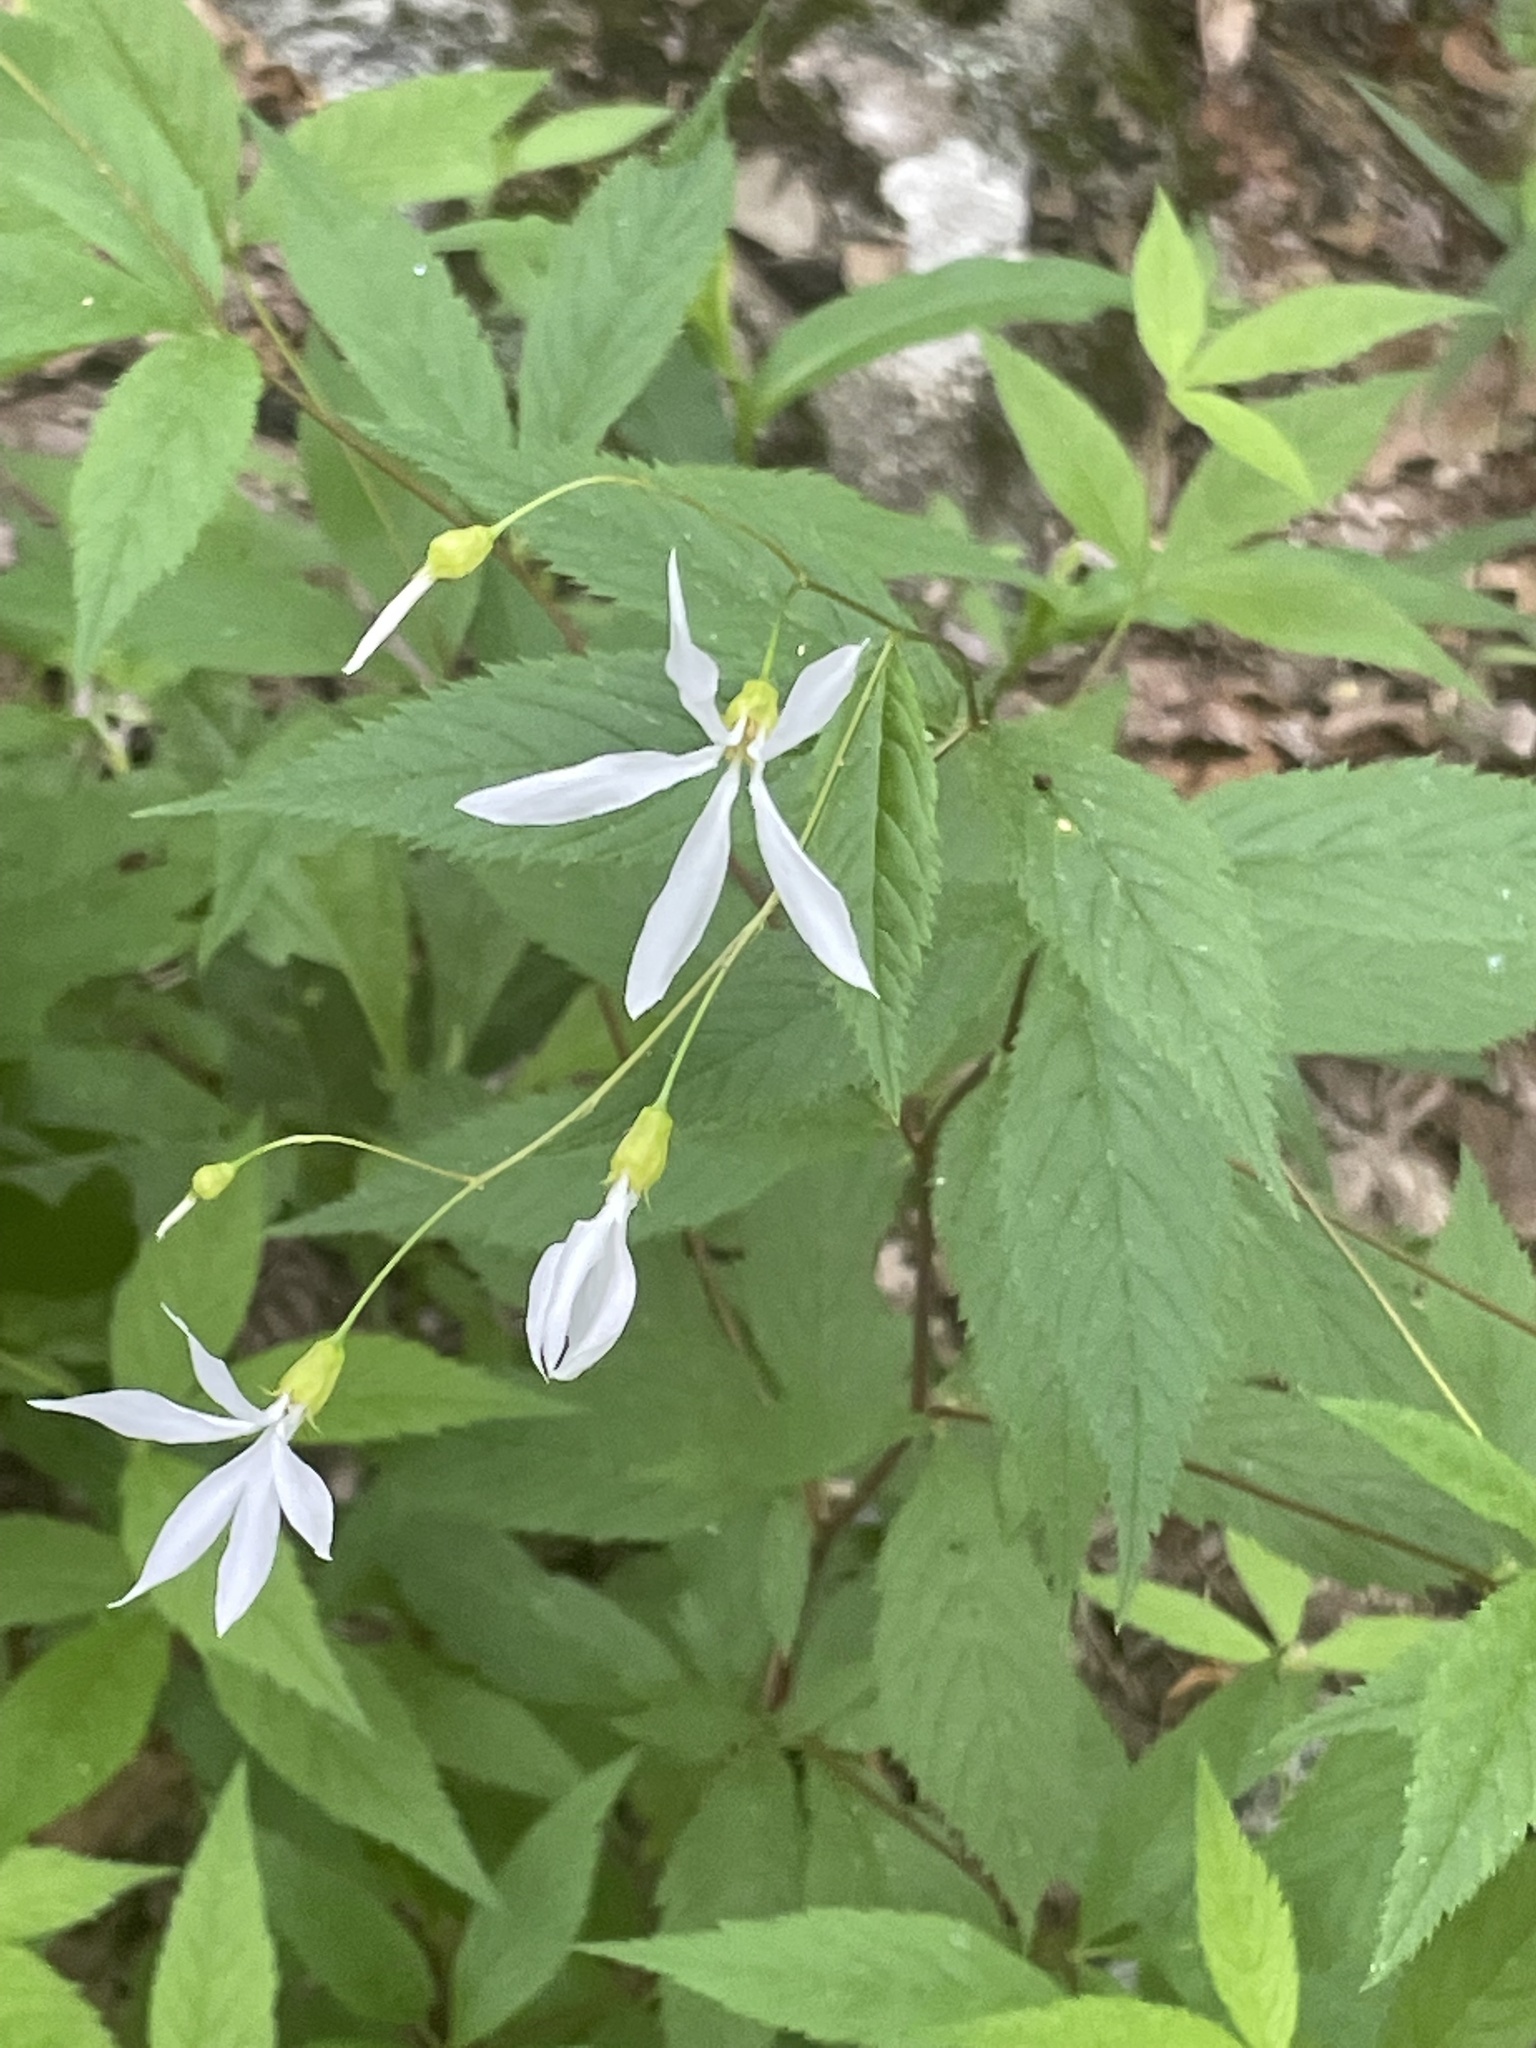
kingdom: Plantae
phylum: Tracheophyta
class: Magnoliopsida
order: Rosales
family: Rosaceae
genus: Gillenia
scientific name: Gillenia trifoliata
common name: Bowman's-root
